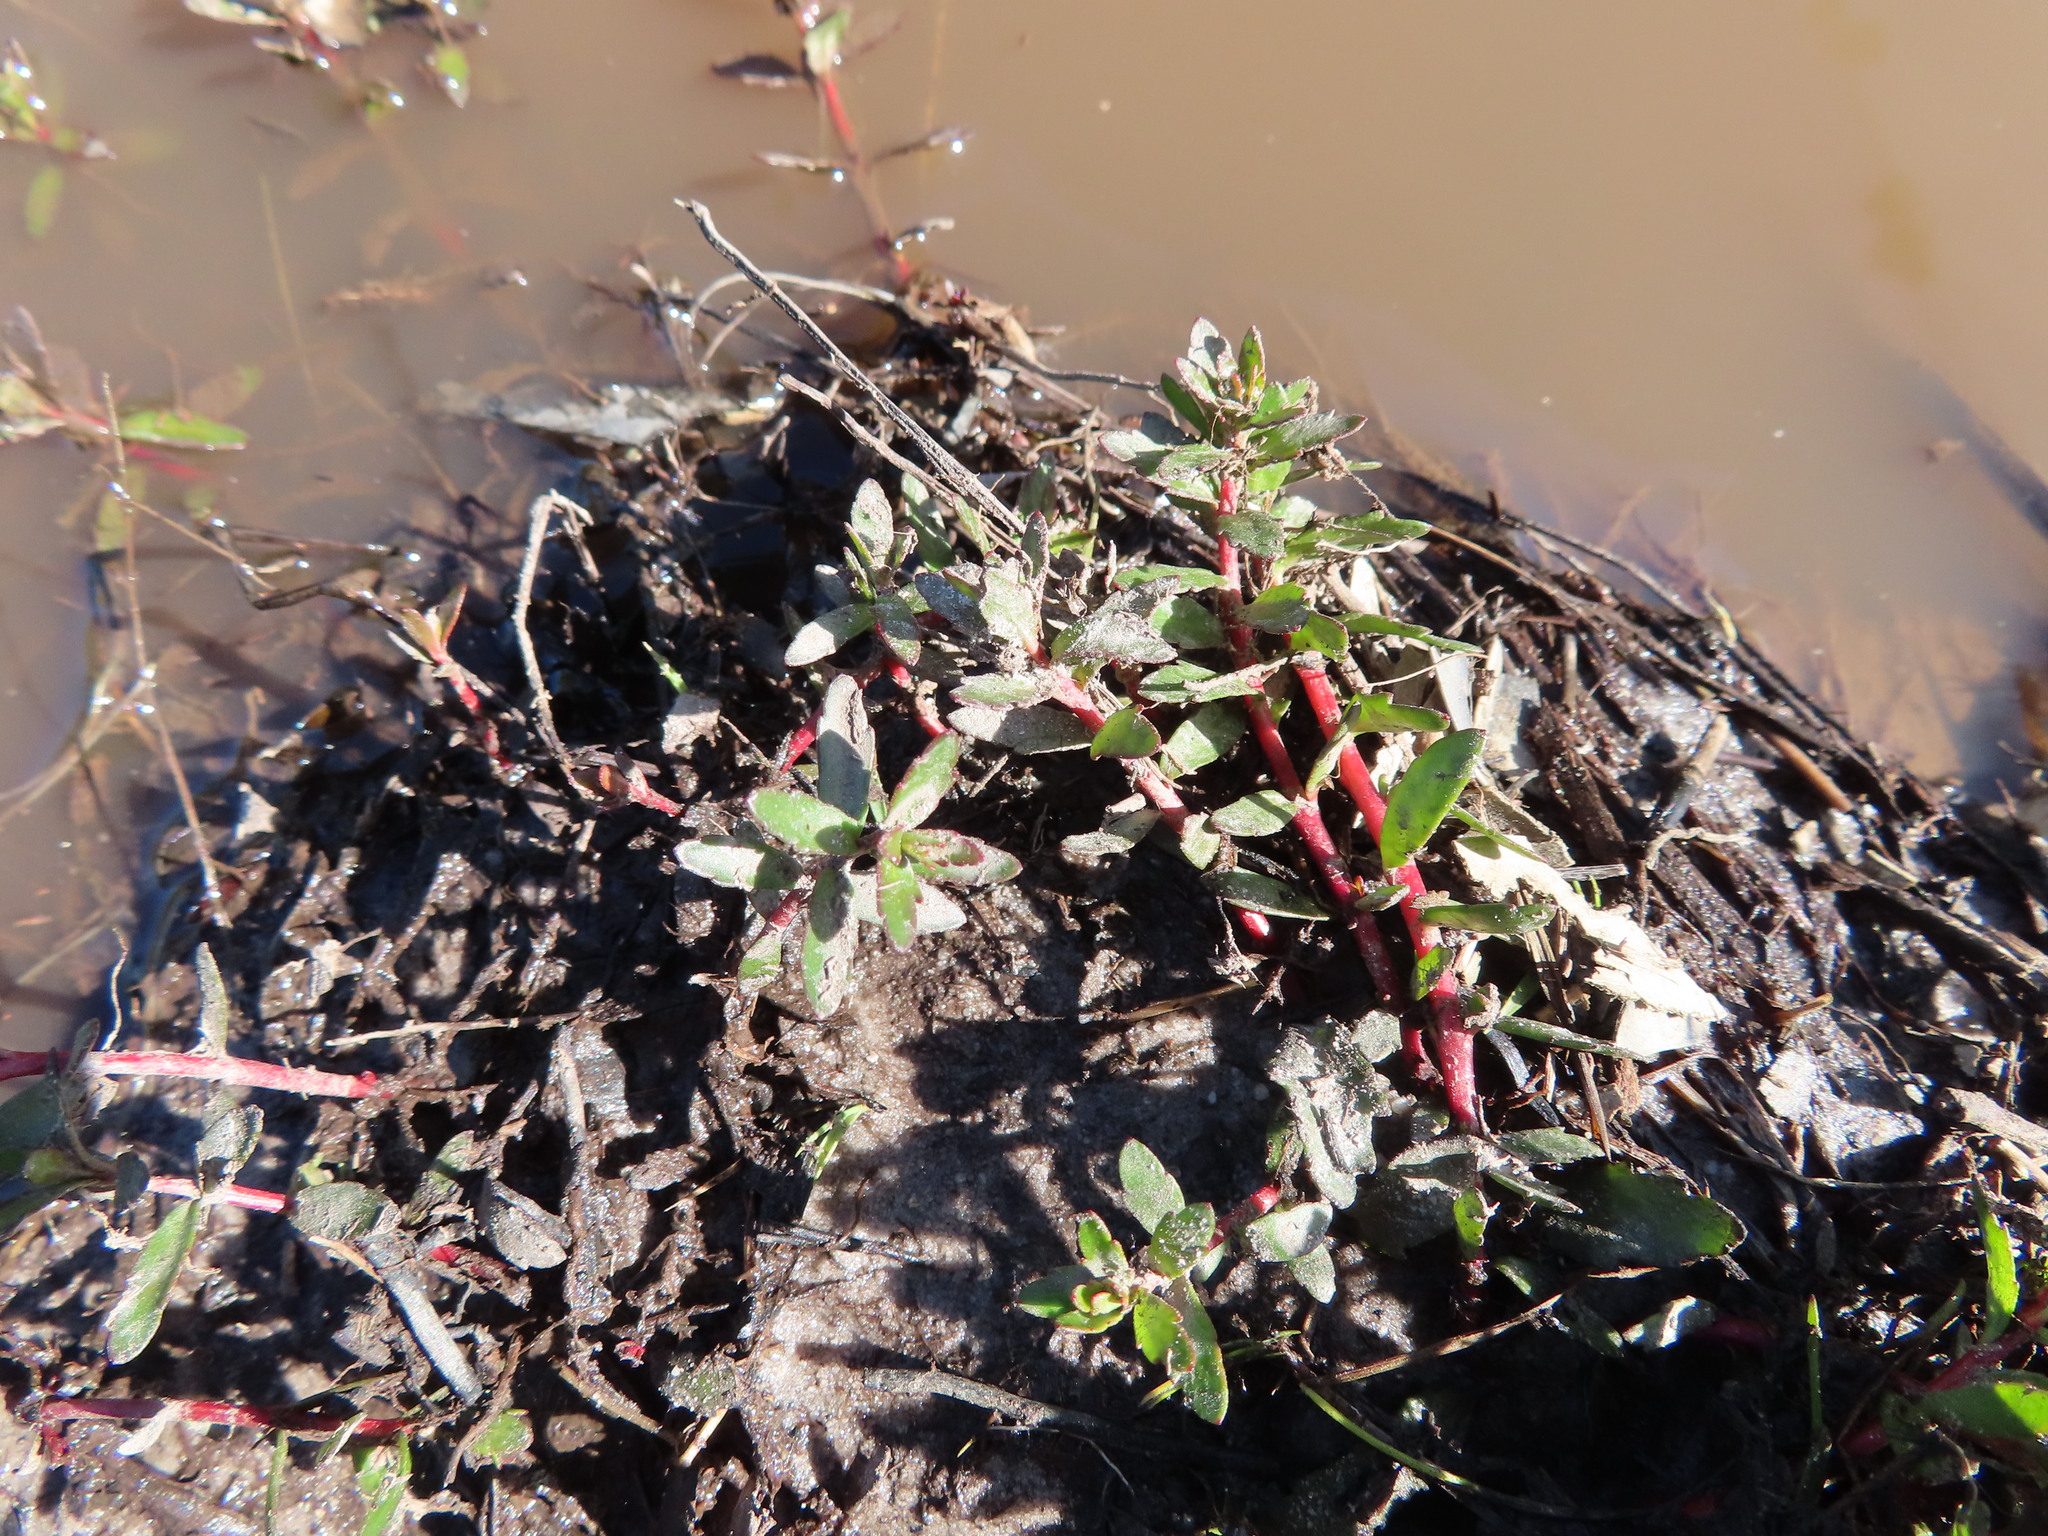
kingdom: Plantae
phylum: Tracheophyta
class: Magnoliopsida
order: Saxifragales
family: Haloragaceae
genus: Laurembergia
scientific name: Laurembergia repens
